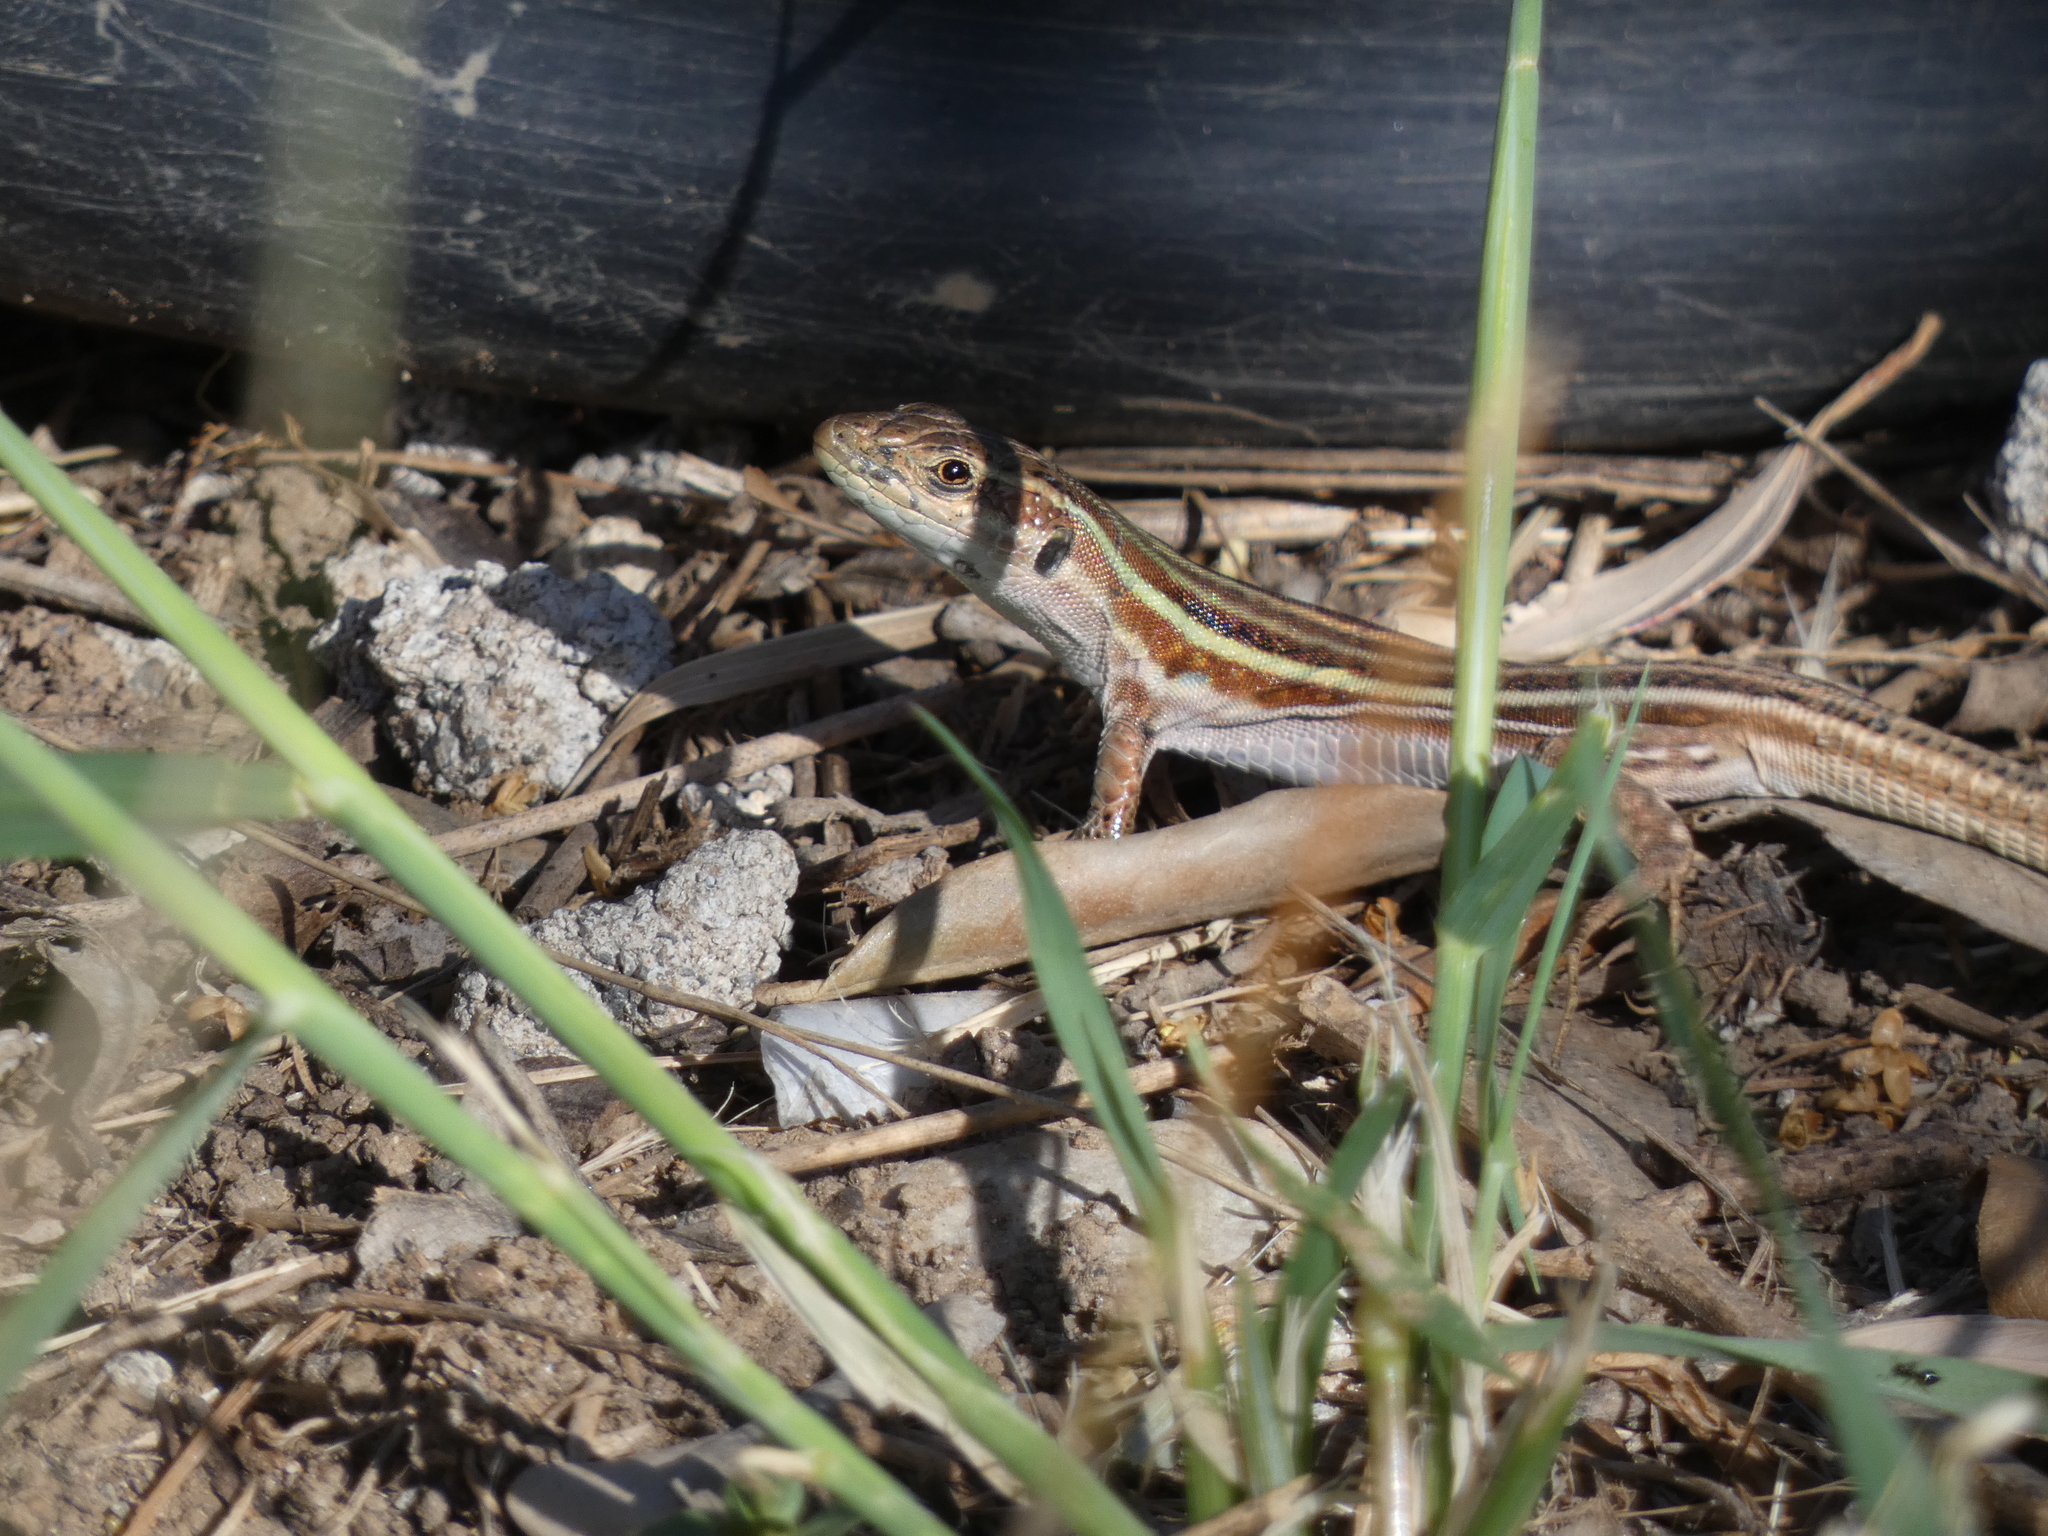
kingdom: Animalia
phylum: Chordata
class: Squamata
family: Lacertidae
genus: Podarcis
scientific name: Podarcis peloponnesiacus
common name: Peloponnese wall lizard
